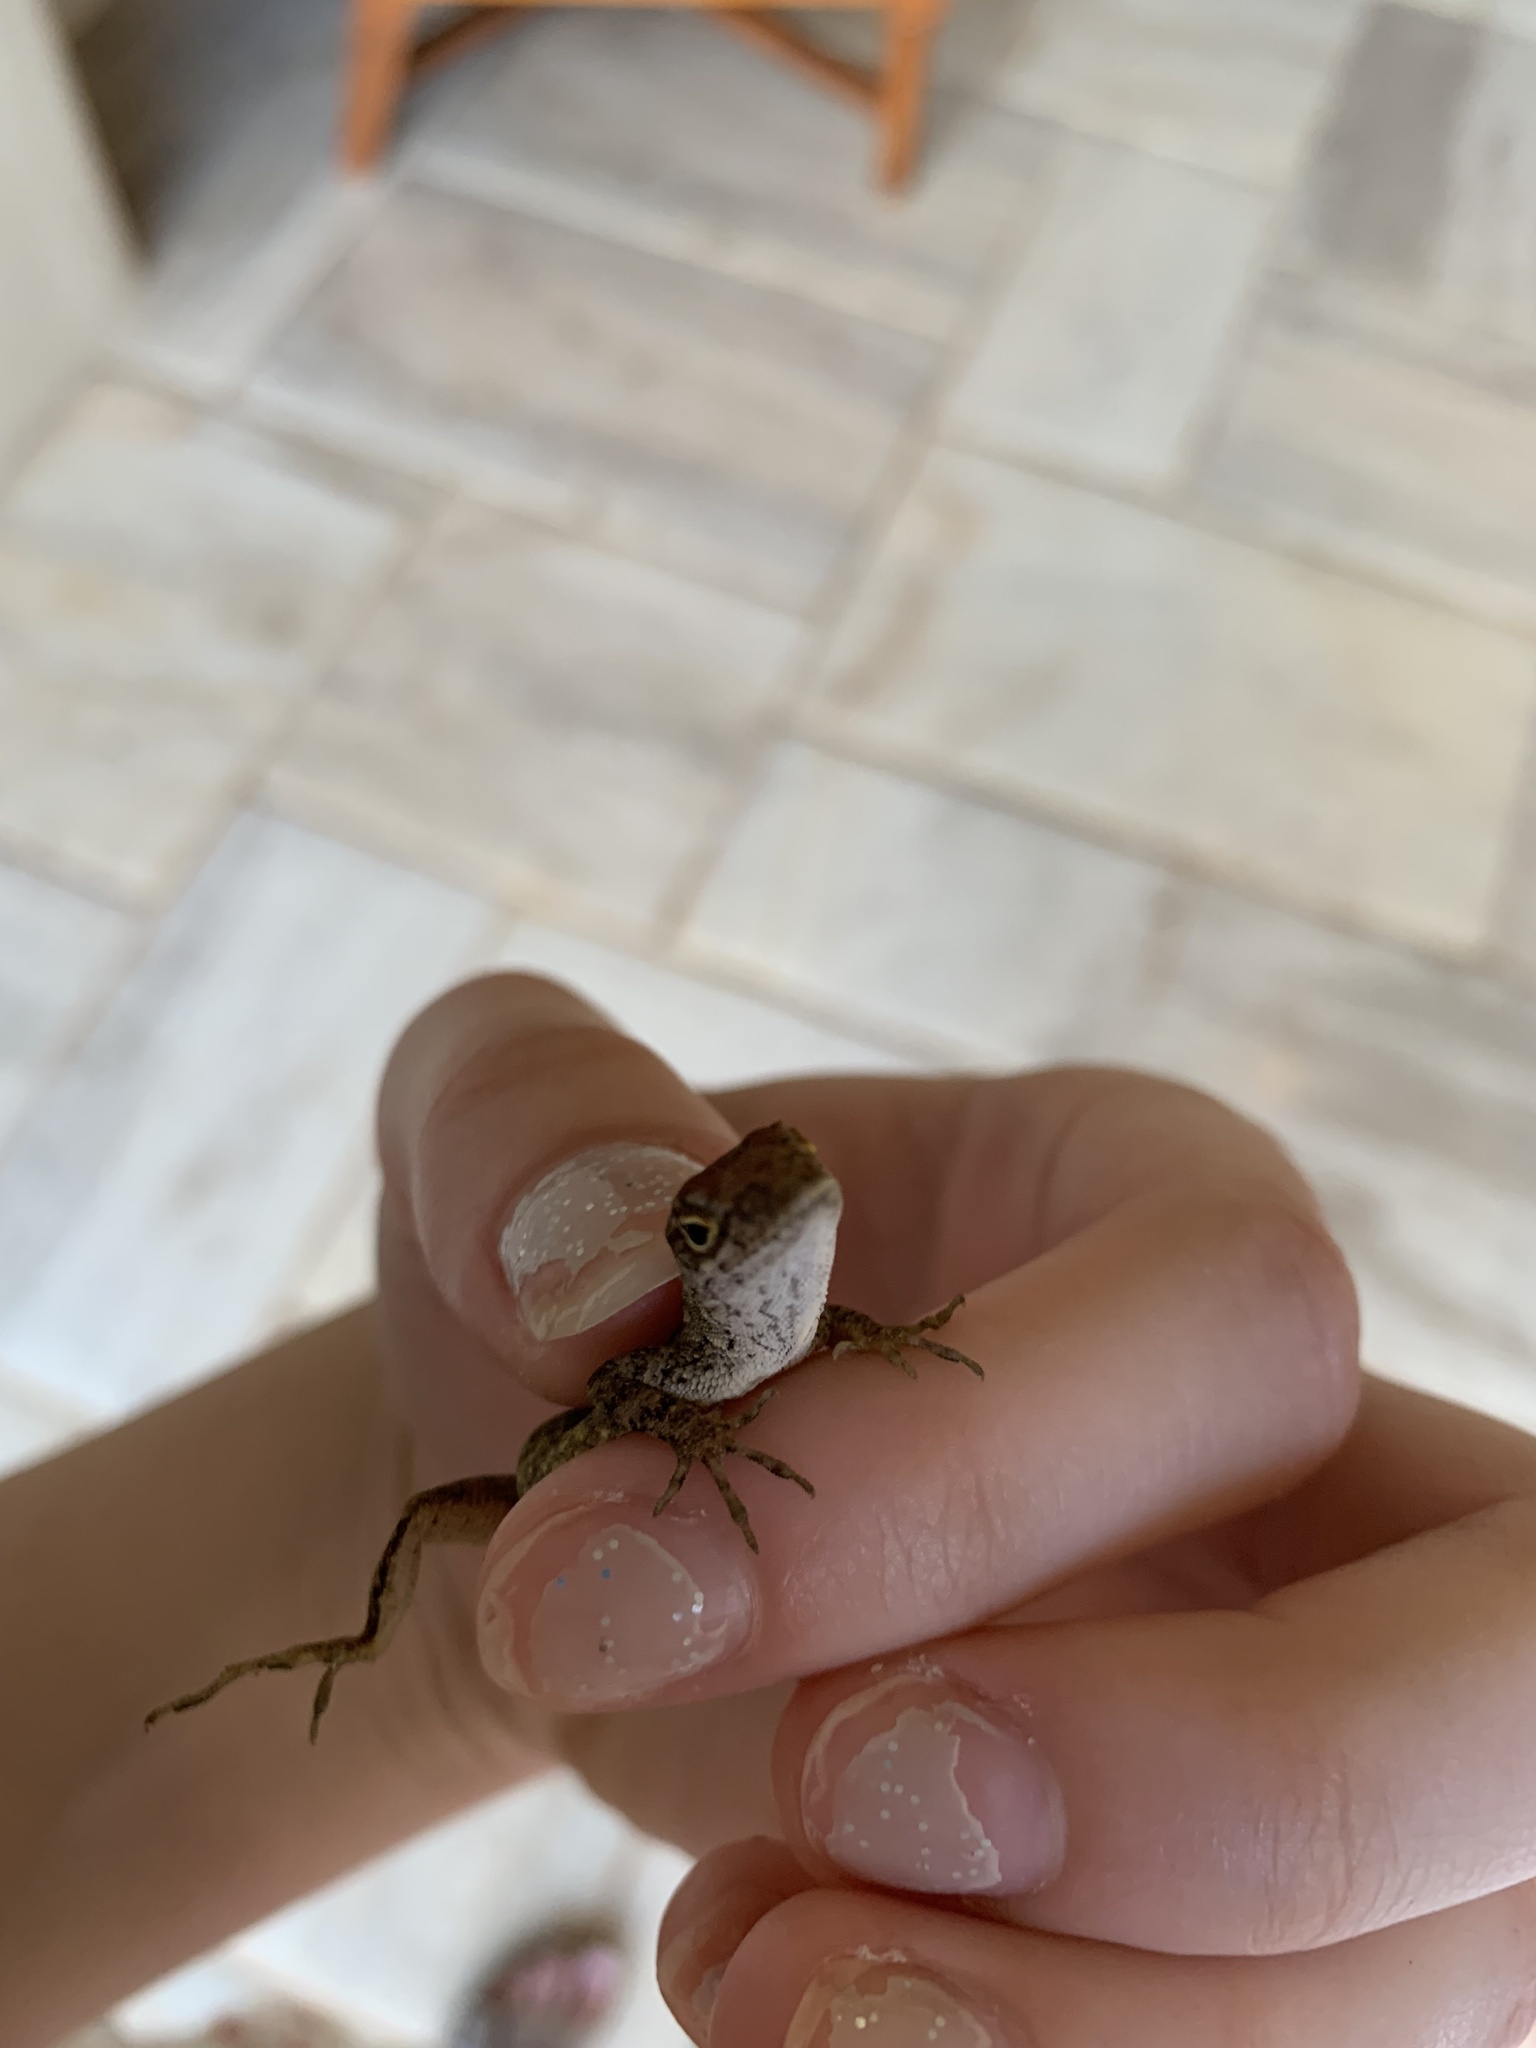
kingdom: Animalia
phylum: Chordata
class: Squamata
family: Dactyloidae
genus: Anolis
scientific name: Anolis sagrei
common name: Brown anole
